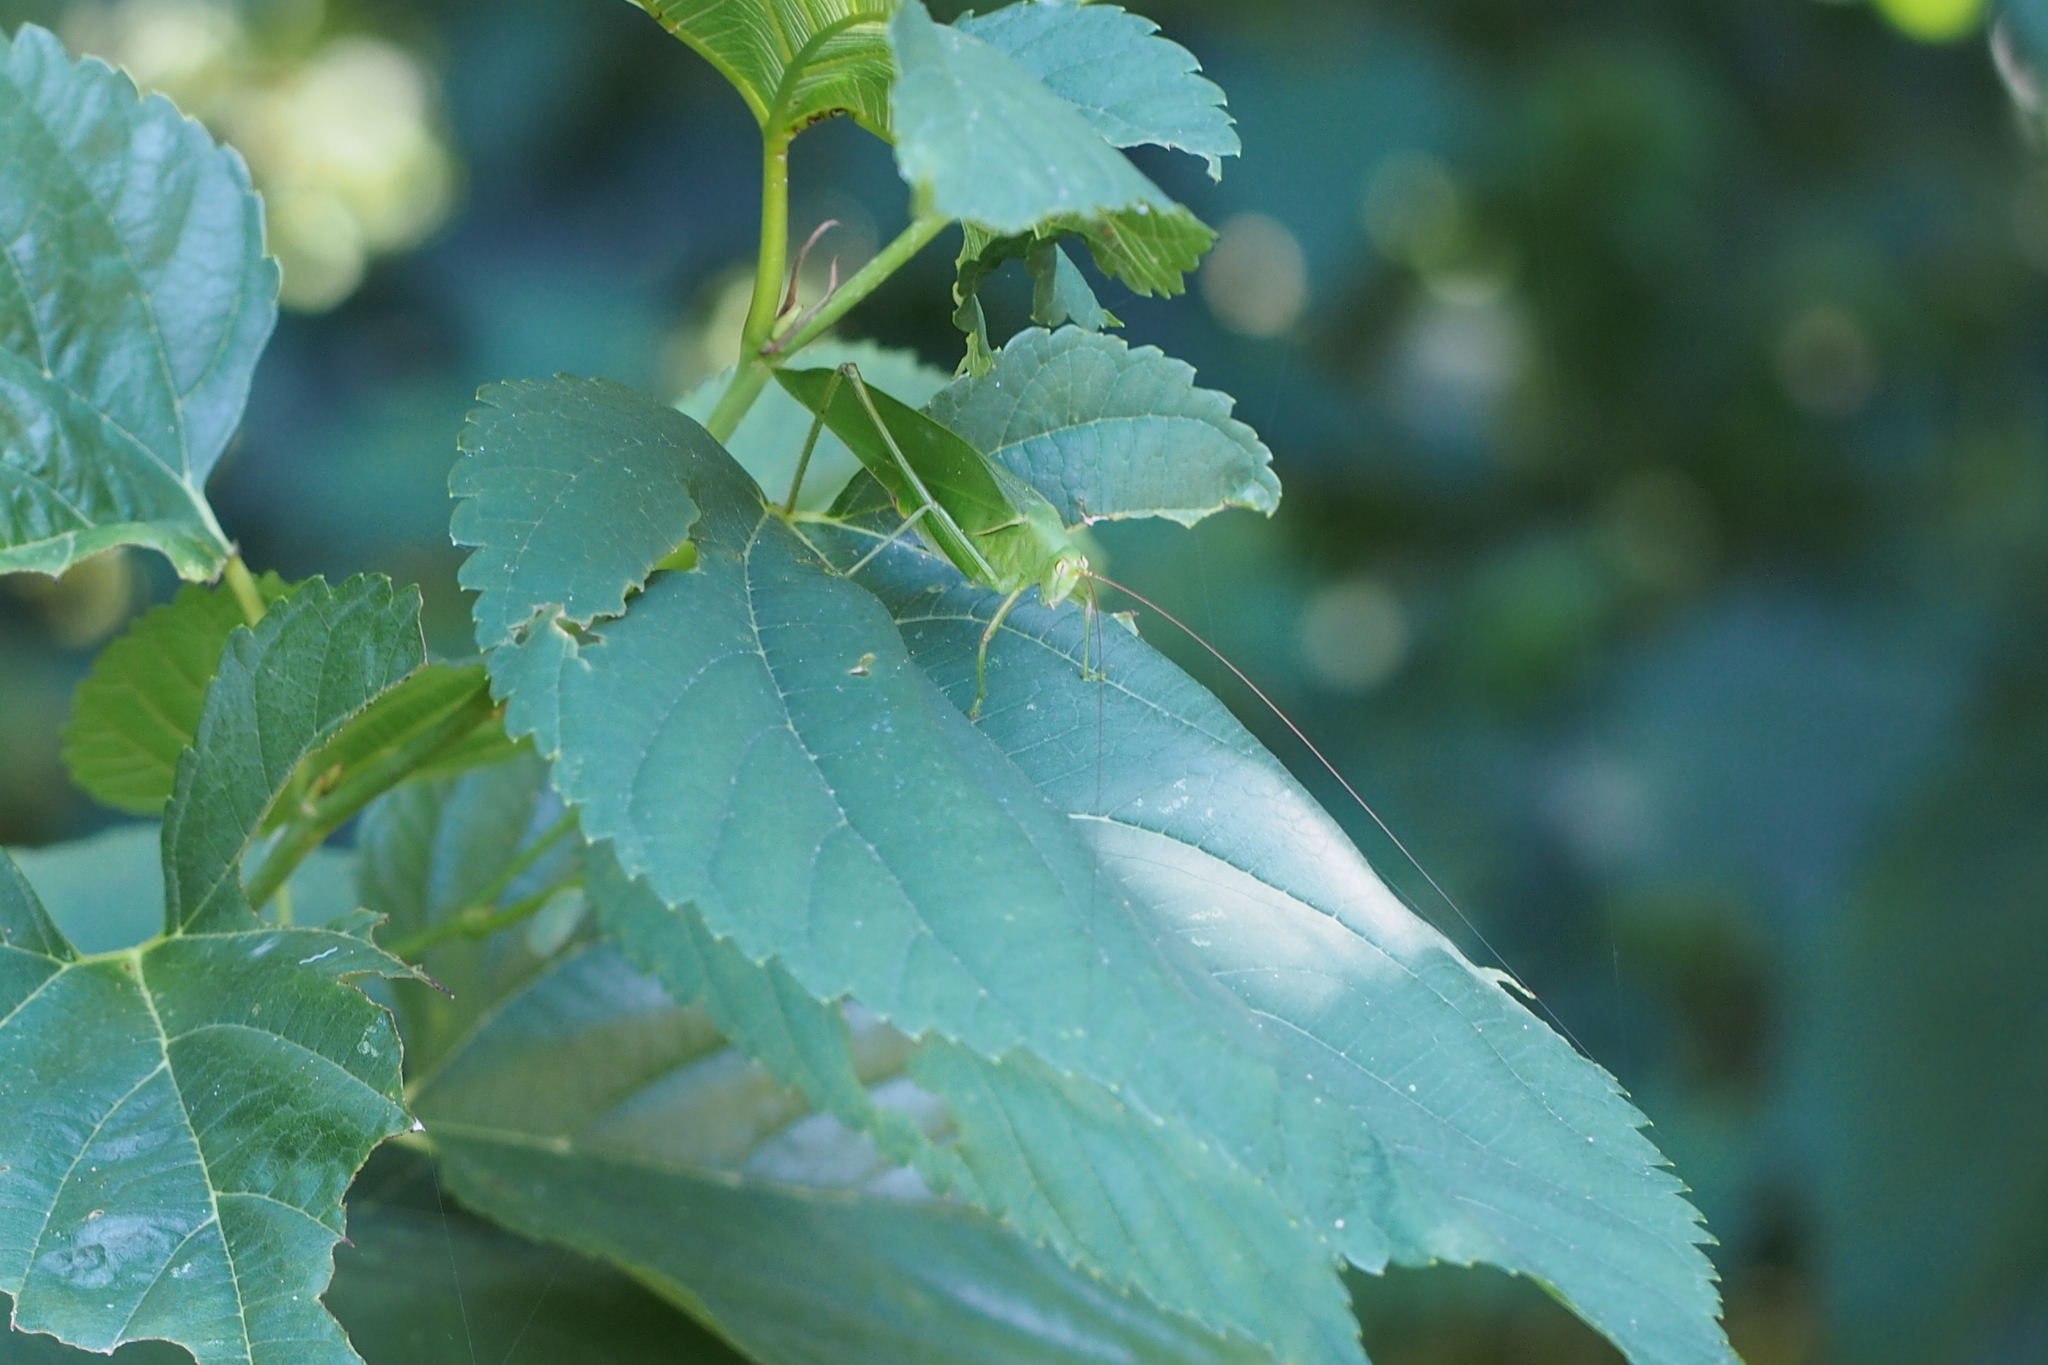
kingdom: Animalia
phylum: Arthropoda
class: Insecta
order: Orthoptera
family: Tettigoniidae
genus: Holochlora
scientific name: Holochlora japonica
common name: Japanese broadwinged katydid
